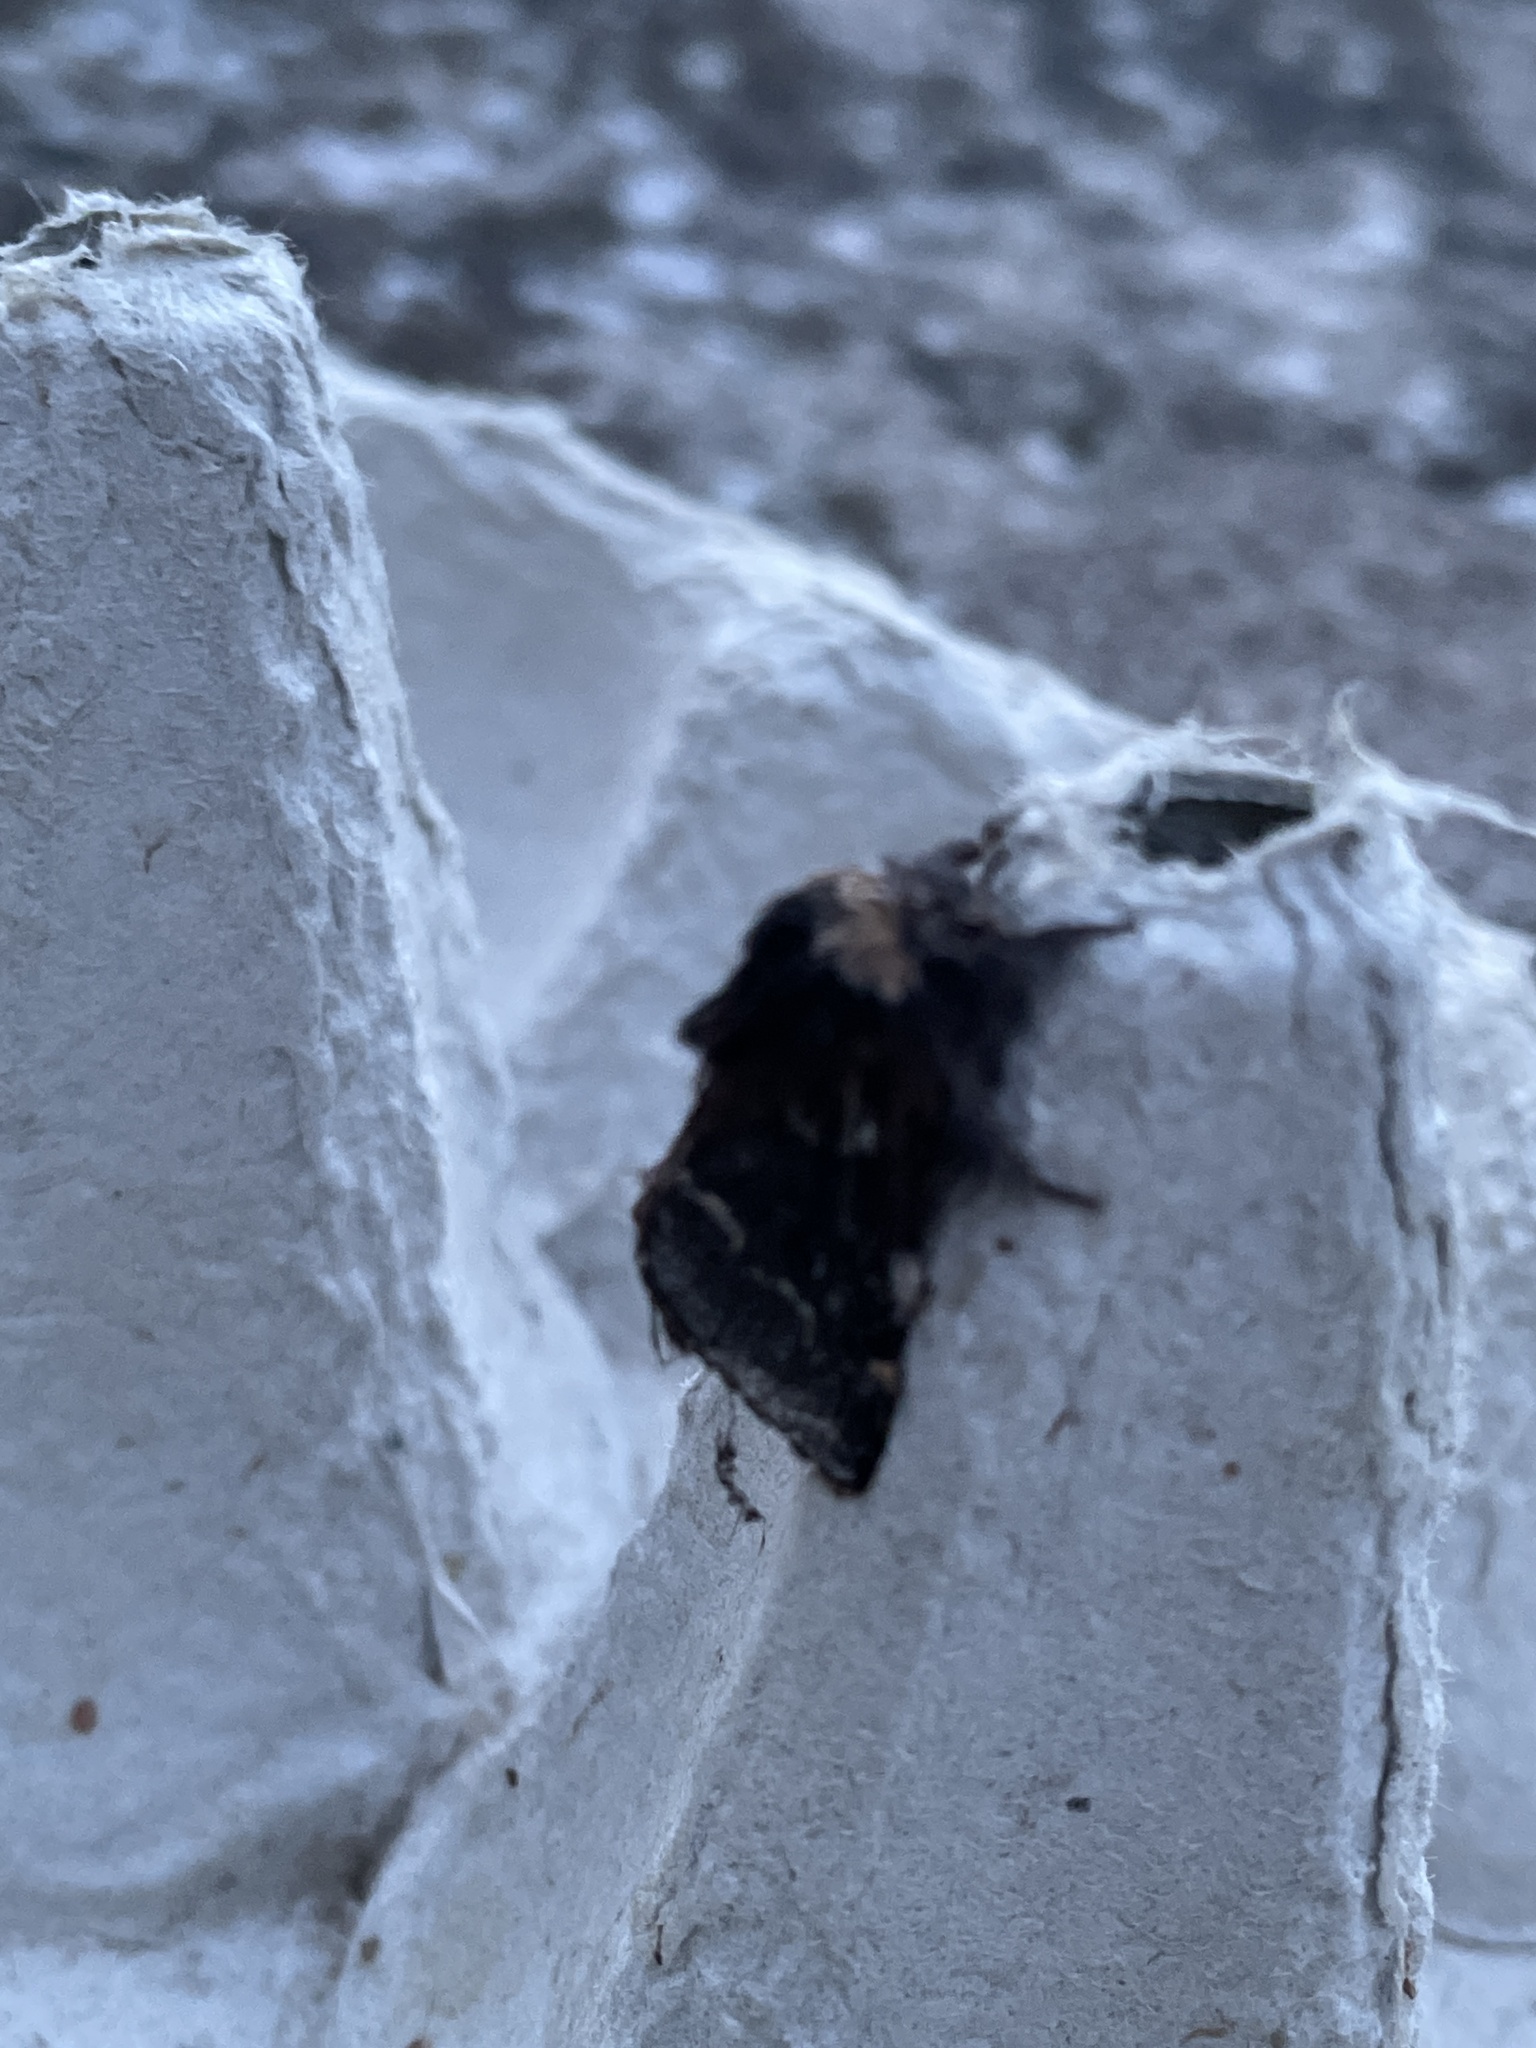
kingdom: Animalia
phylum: Arthropoda
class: Insecta
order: Lepidoptera
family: Lasiocampidae
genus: Poecilocampa
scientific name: Poecilocampa populi
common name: December moth
